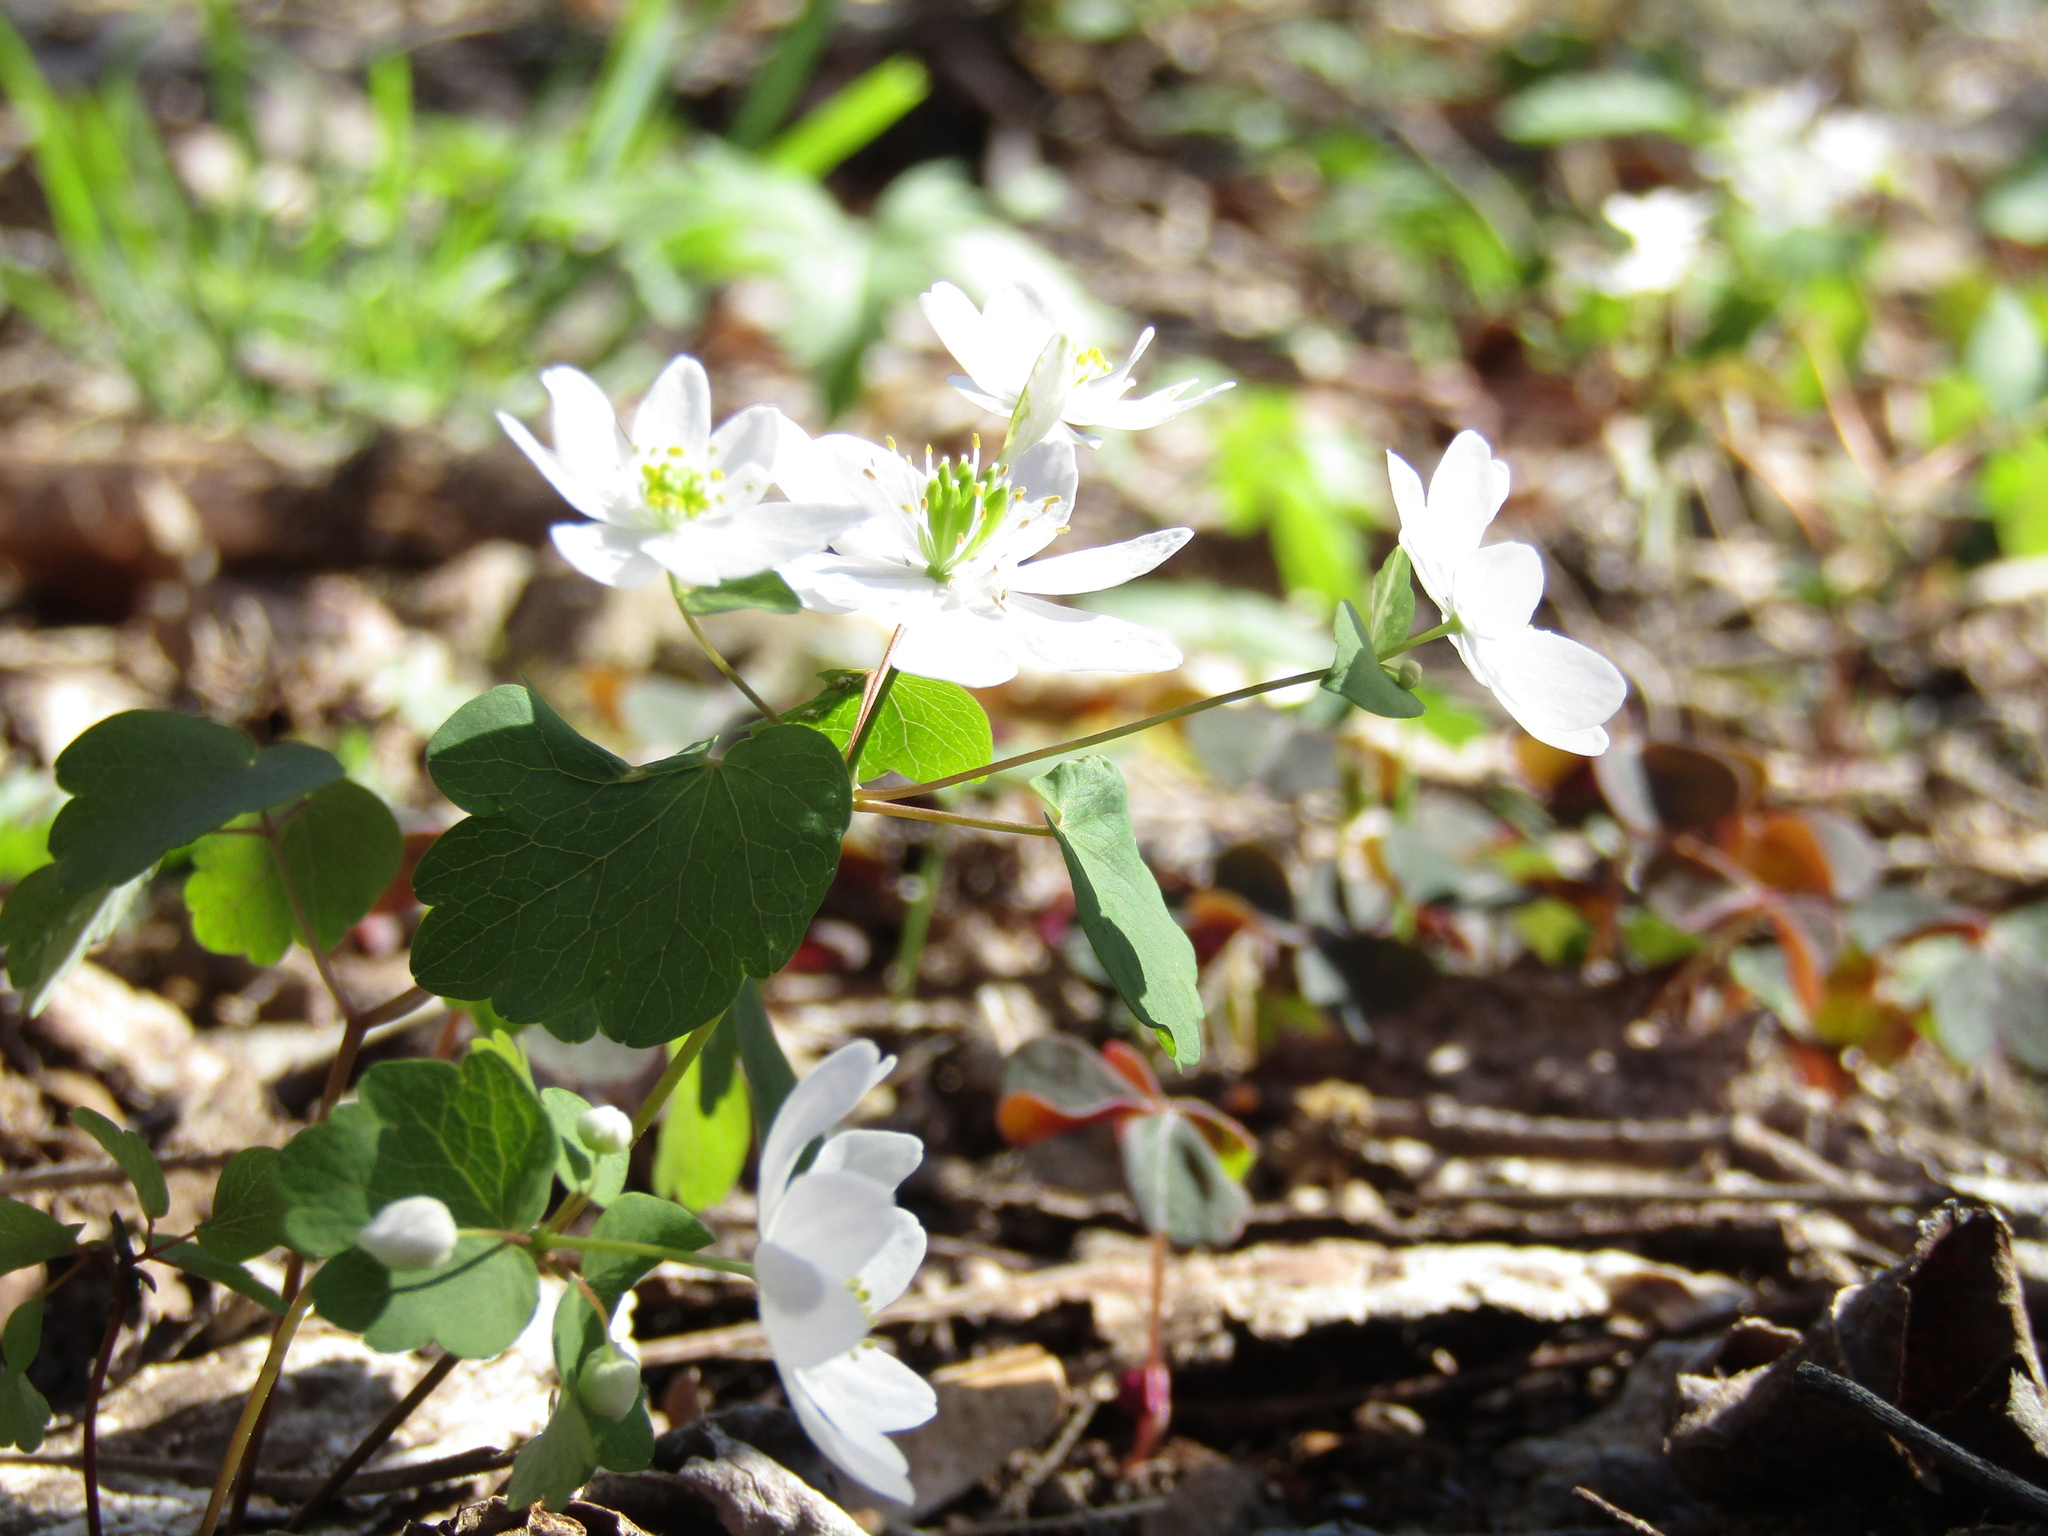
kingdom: Plantae
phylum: Tracheophyta
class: Magnoliopsida
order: Ranunculales
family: Ranunculaceae
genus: Thalictrum
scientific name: Thalictrum thalictroides
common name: Rue-anemone
